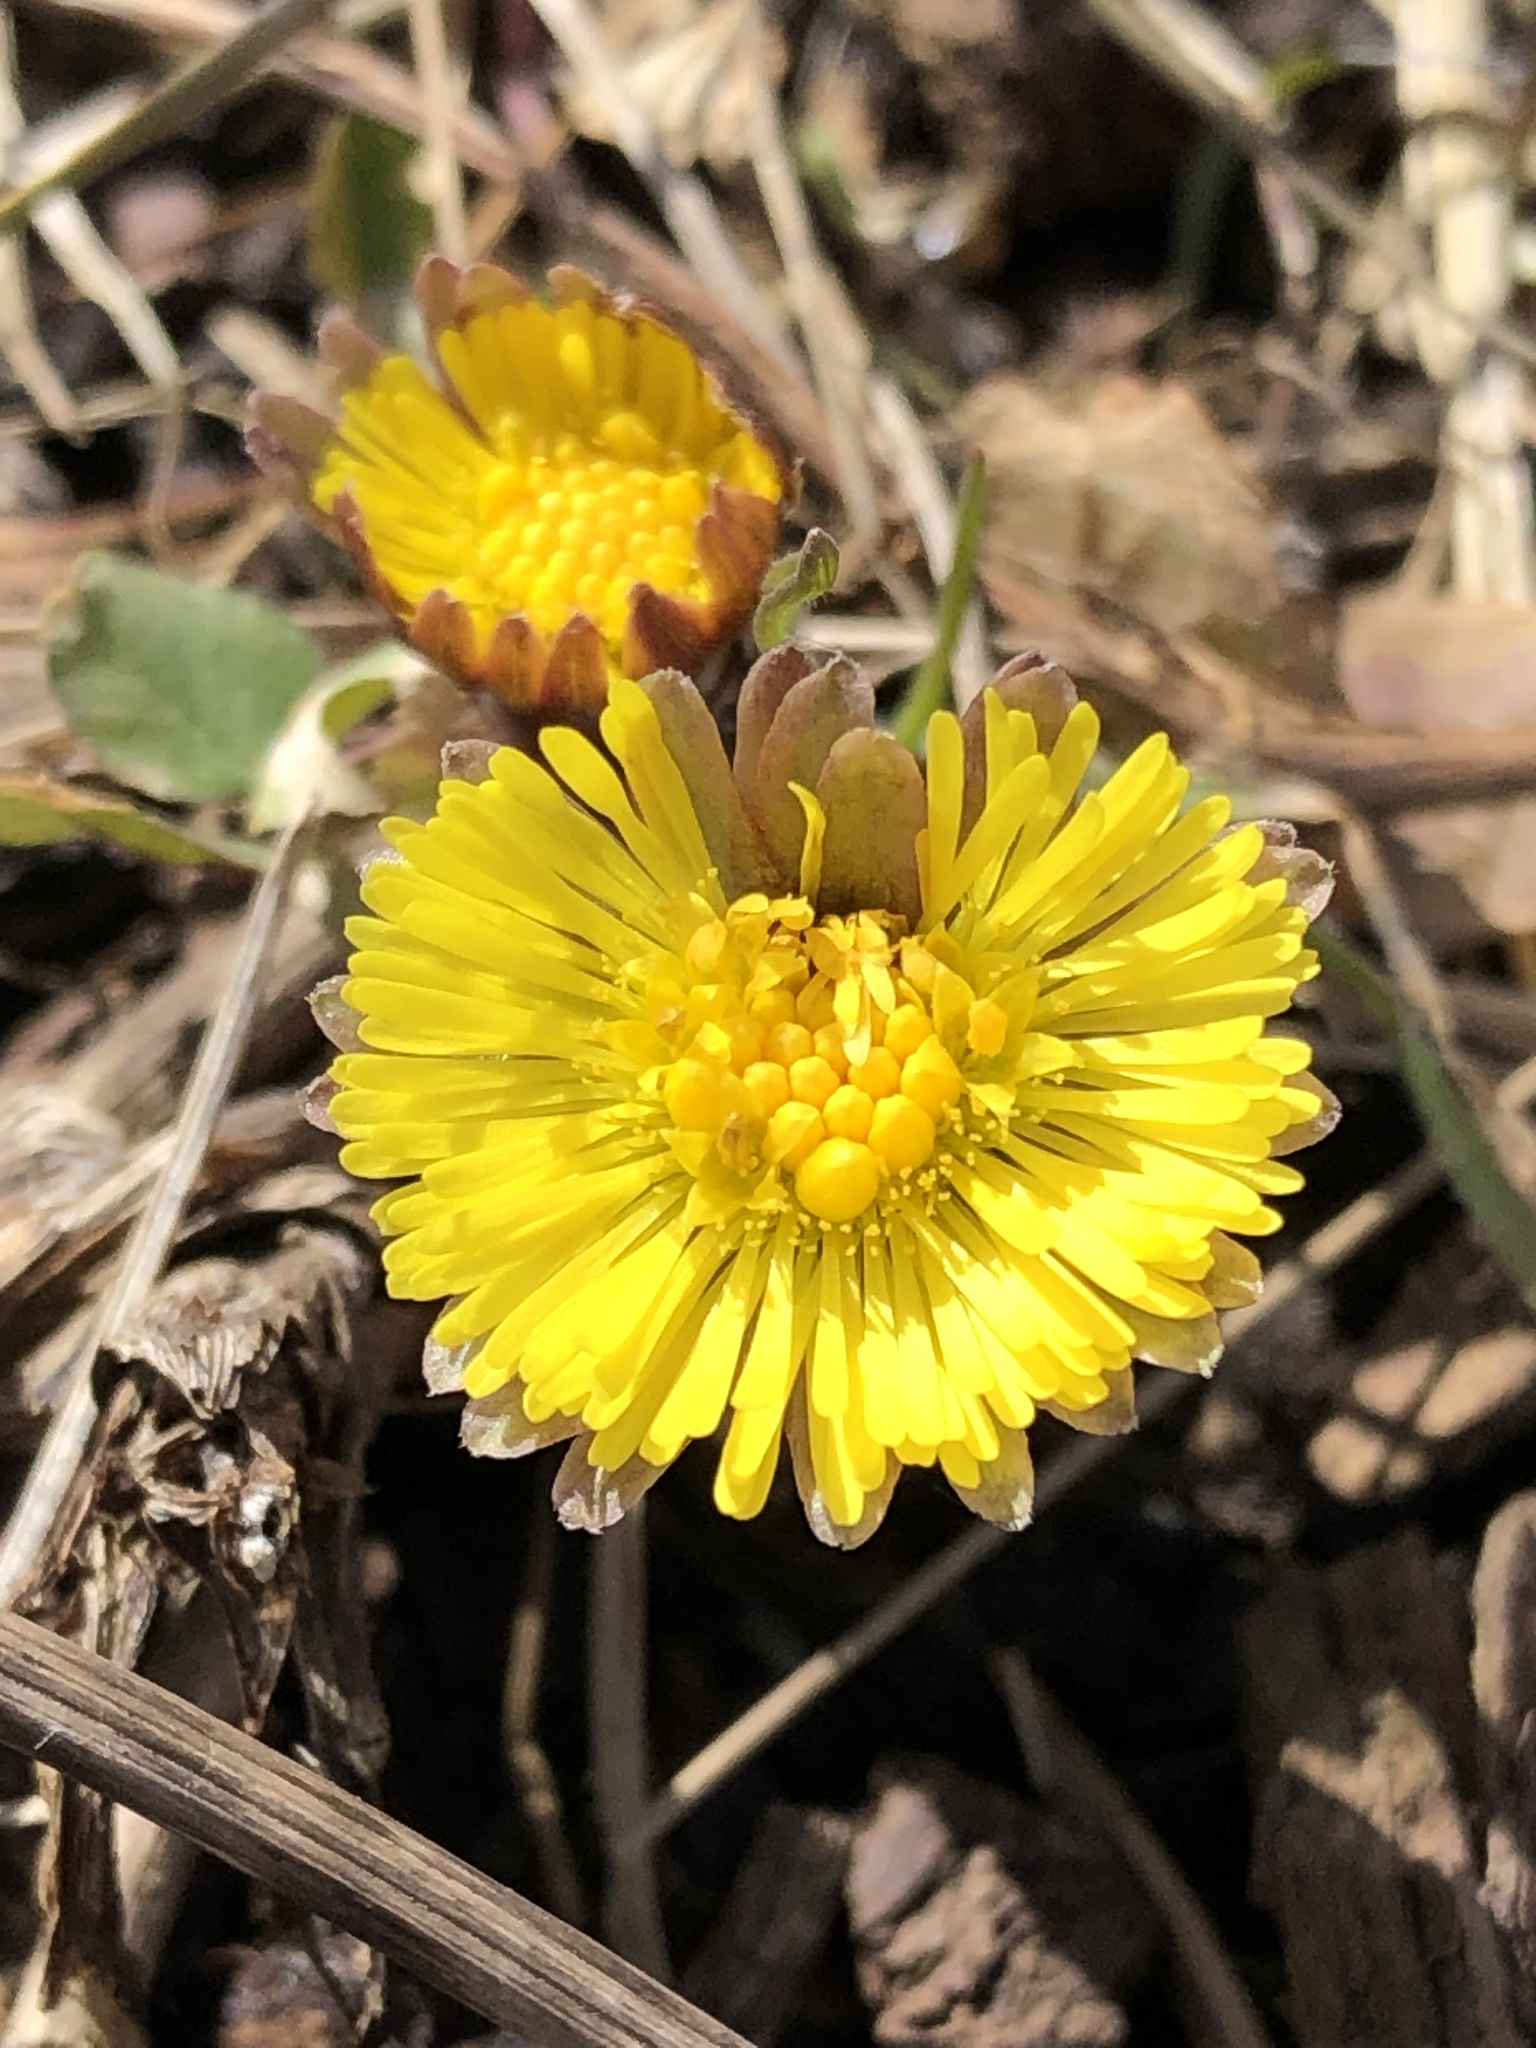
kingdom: Plantae
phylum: Tracheophyta
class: Magnoliopsida
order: Asterales
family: Asteraceae
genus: Tussilago
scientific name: Tussilago farfara
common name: Coltsfoot
